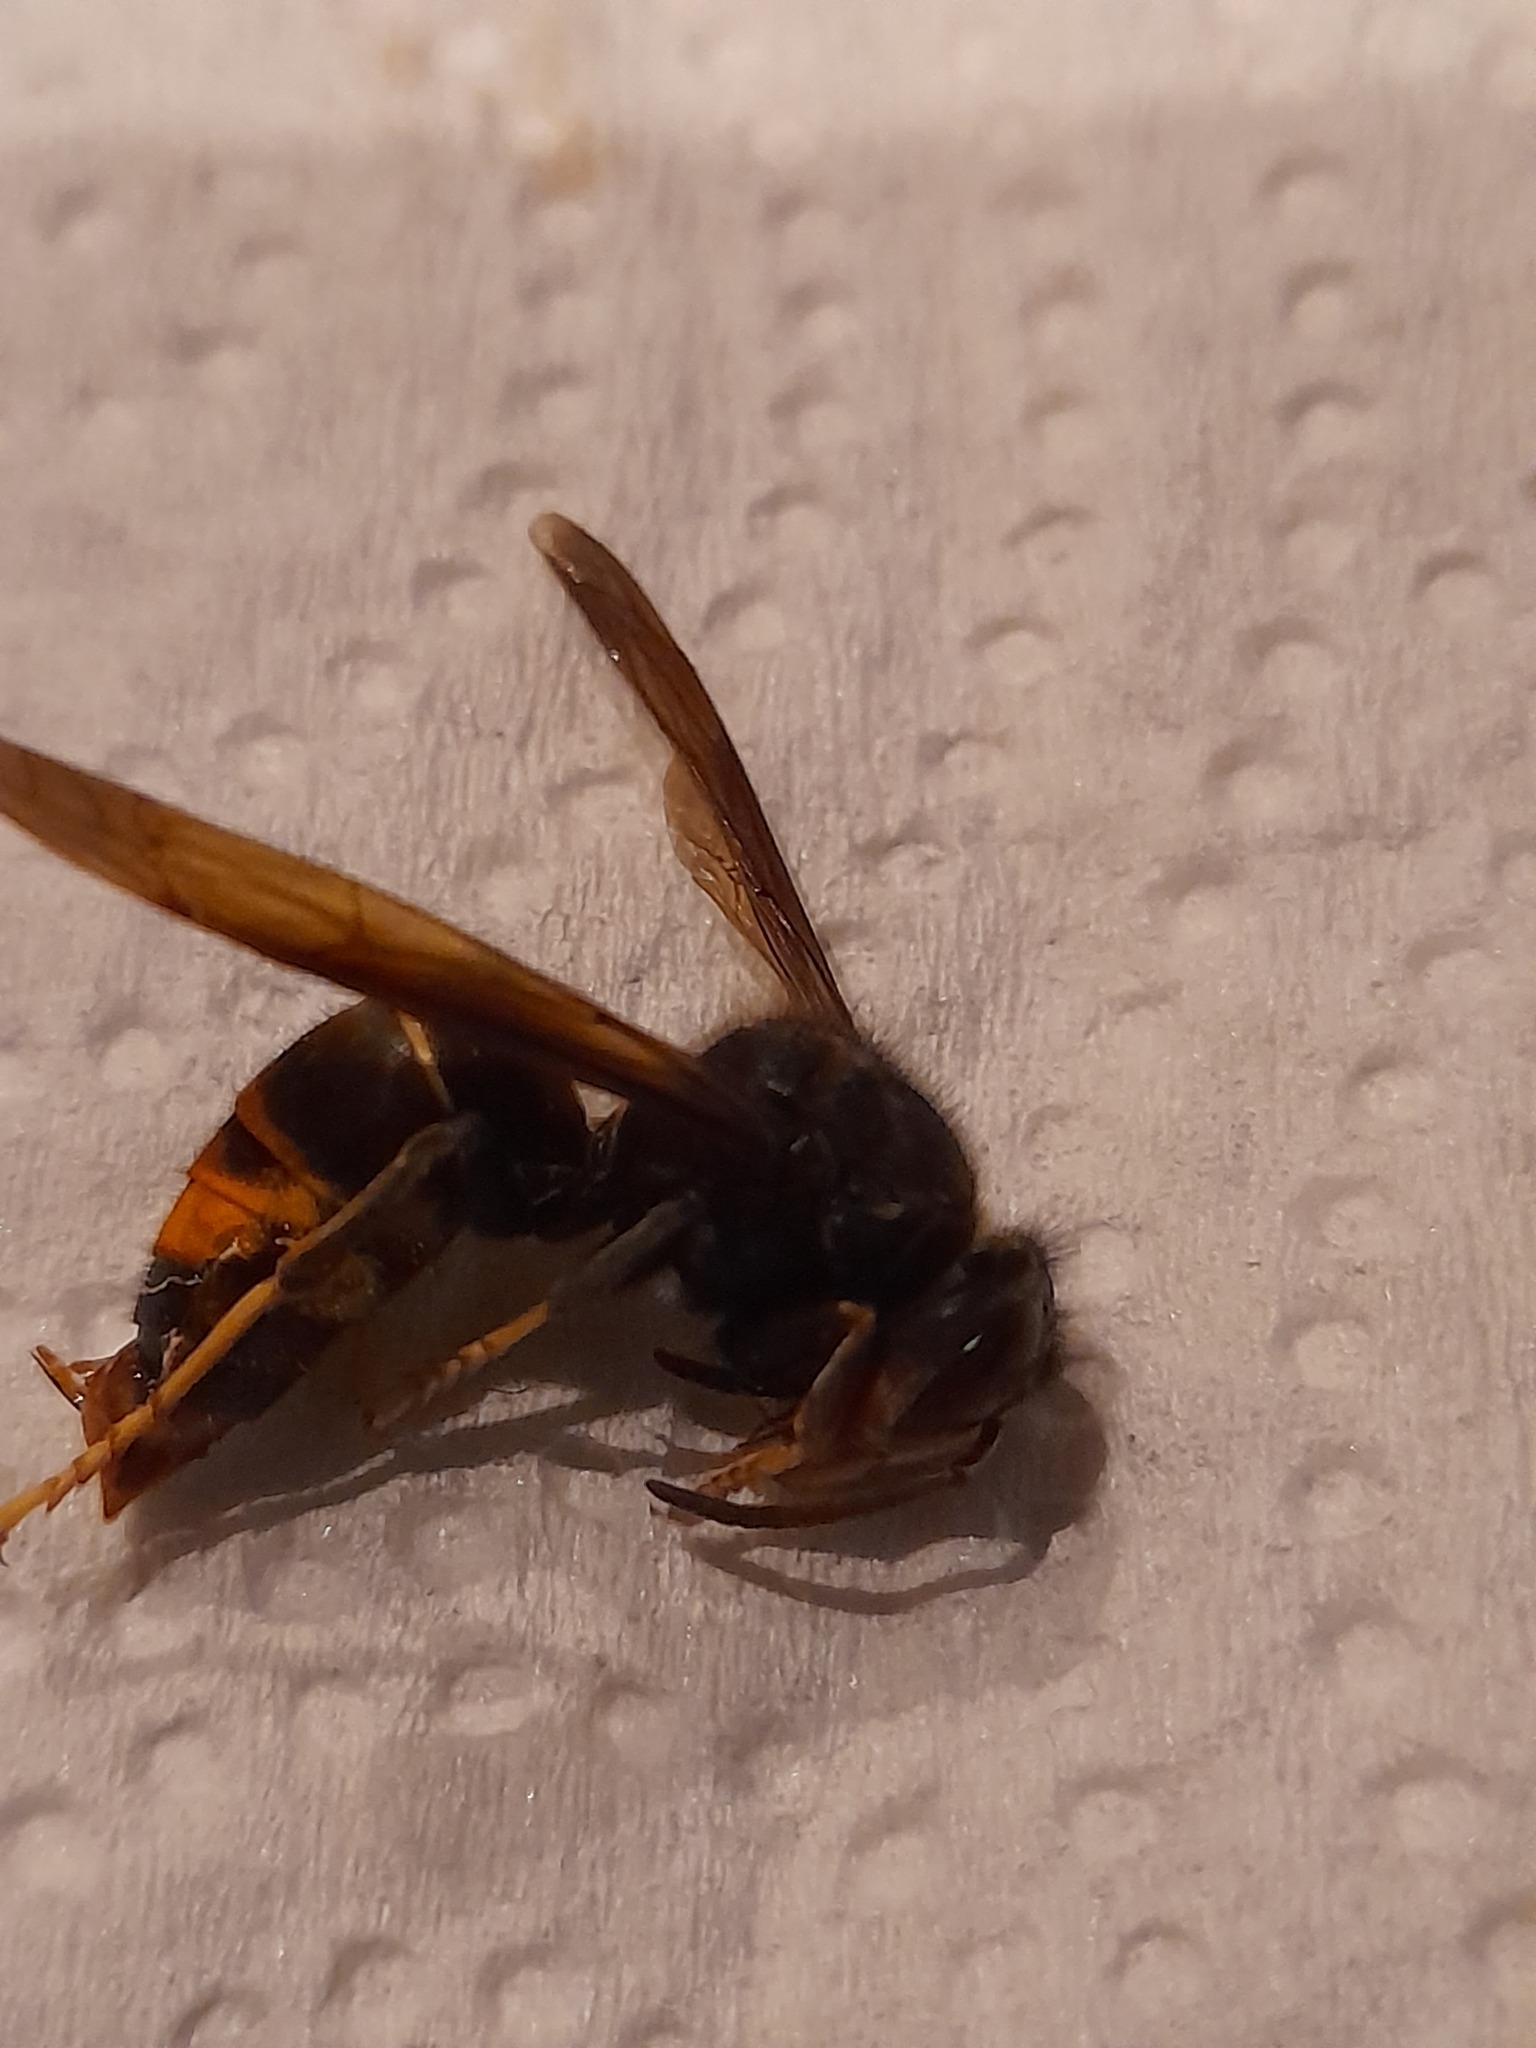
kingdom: Animalia
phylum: Arthropoda
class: Insecta
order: Hymenoptera
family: Vespidae
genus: Vespa
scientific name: Vespa velutina
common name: Asian hornet
